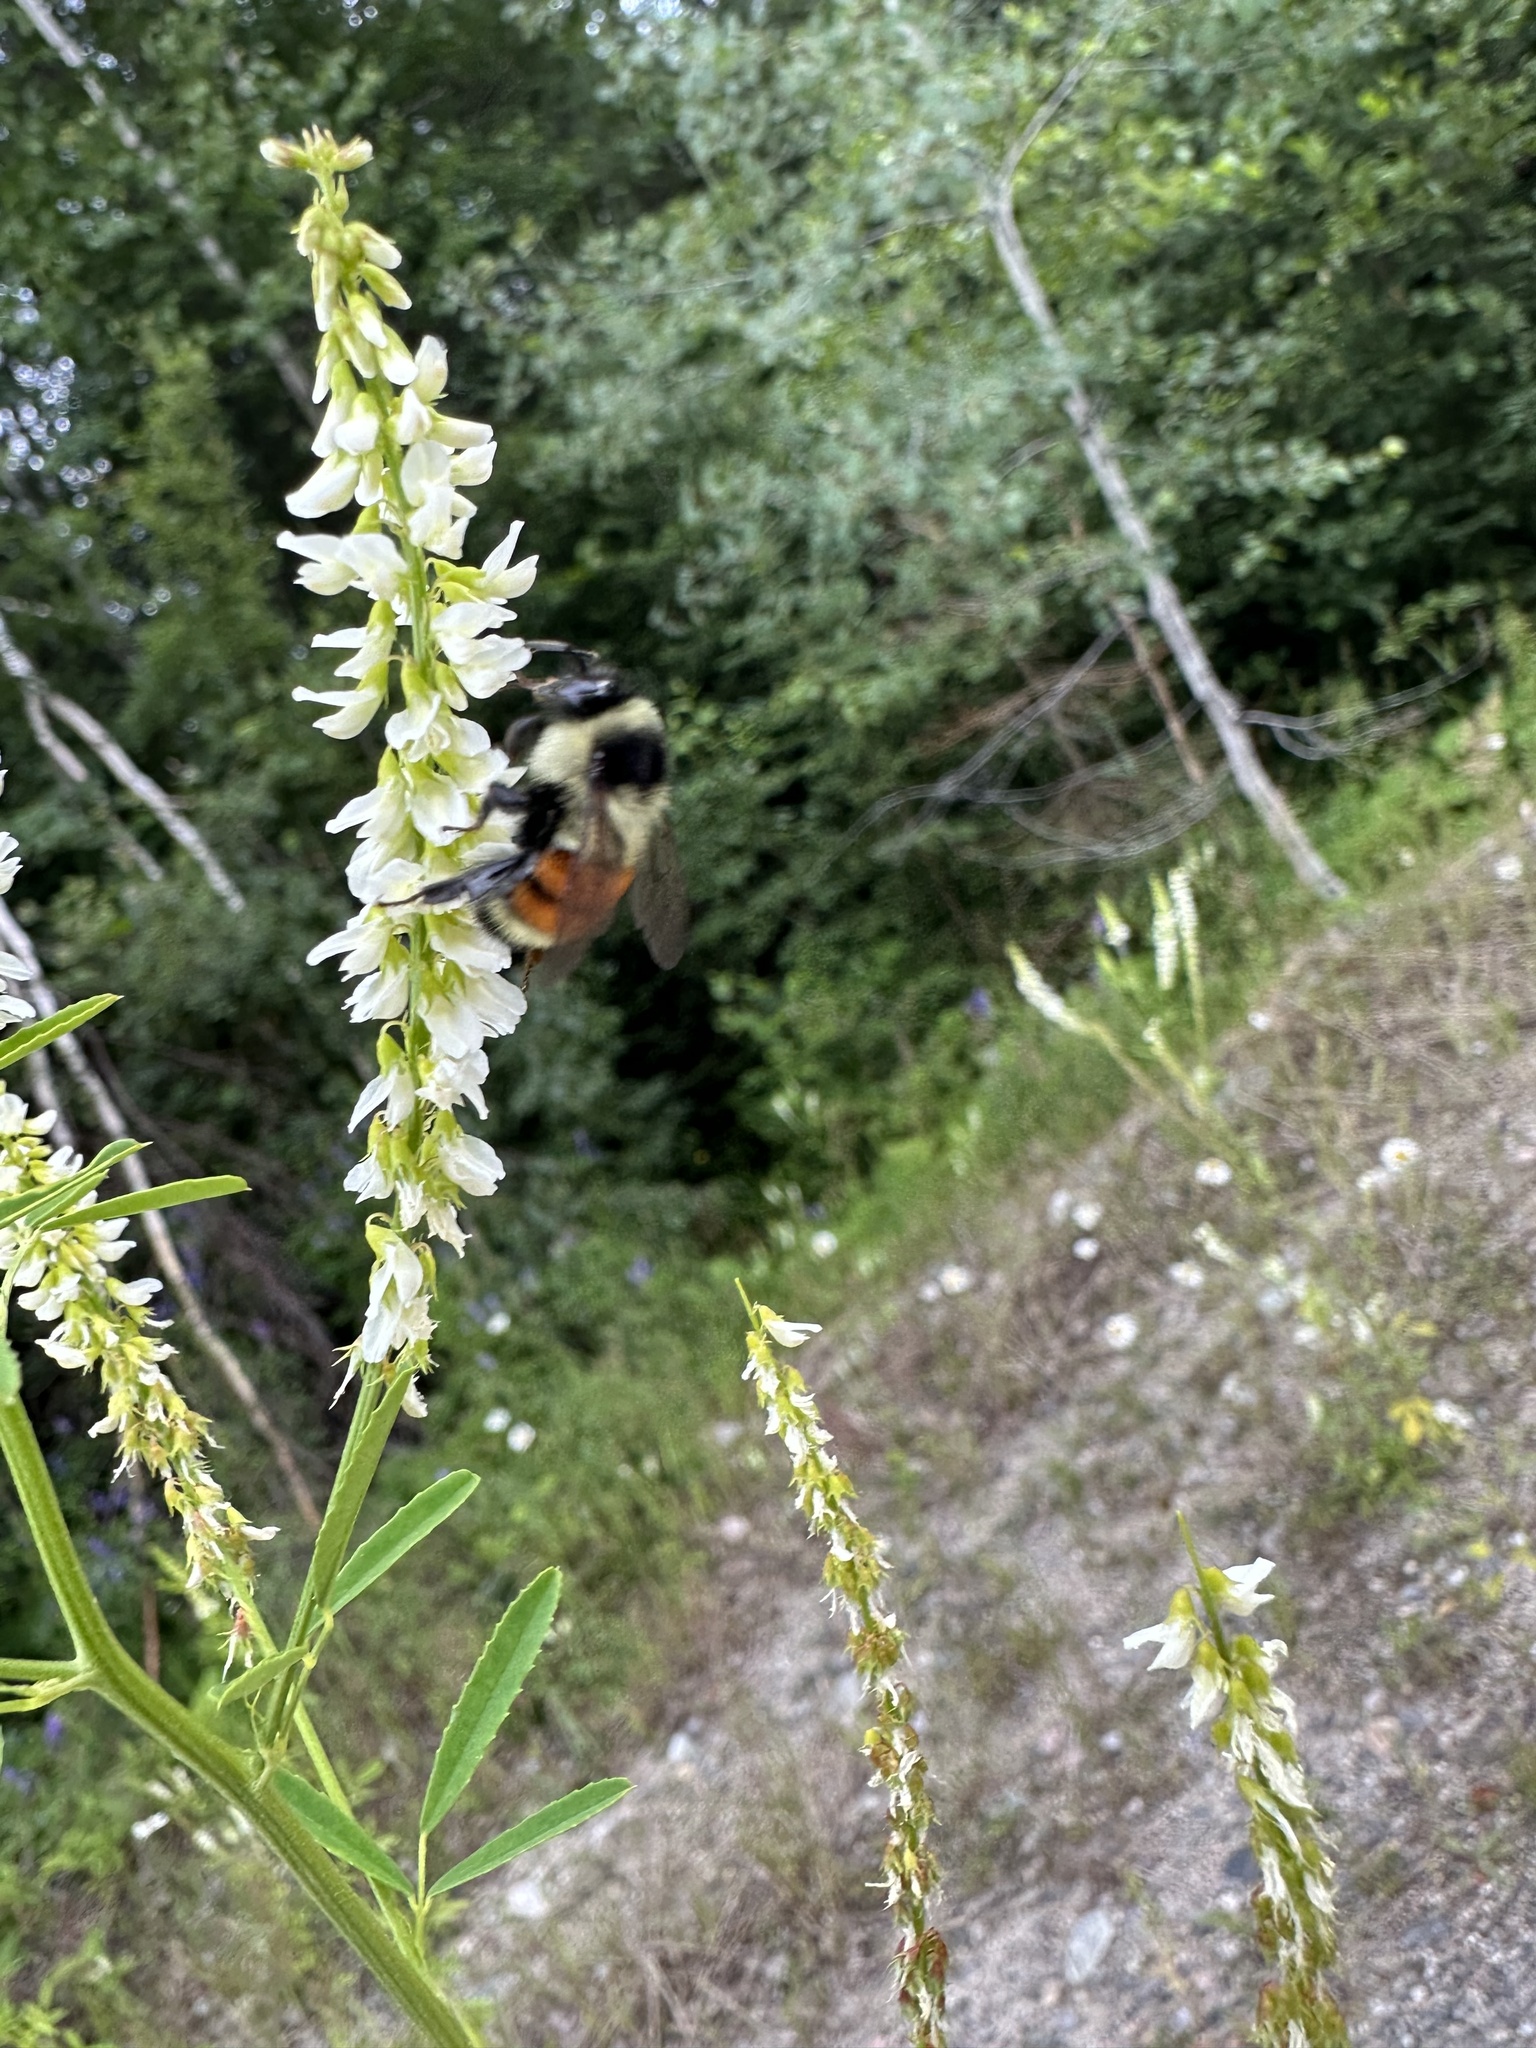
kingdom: Animalia
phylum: Arthropoda
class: Insecta
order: Hymenoptera
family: Apidae
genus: Bombus
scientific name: Bombus ternarius
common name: Tri-colored bumble bee
